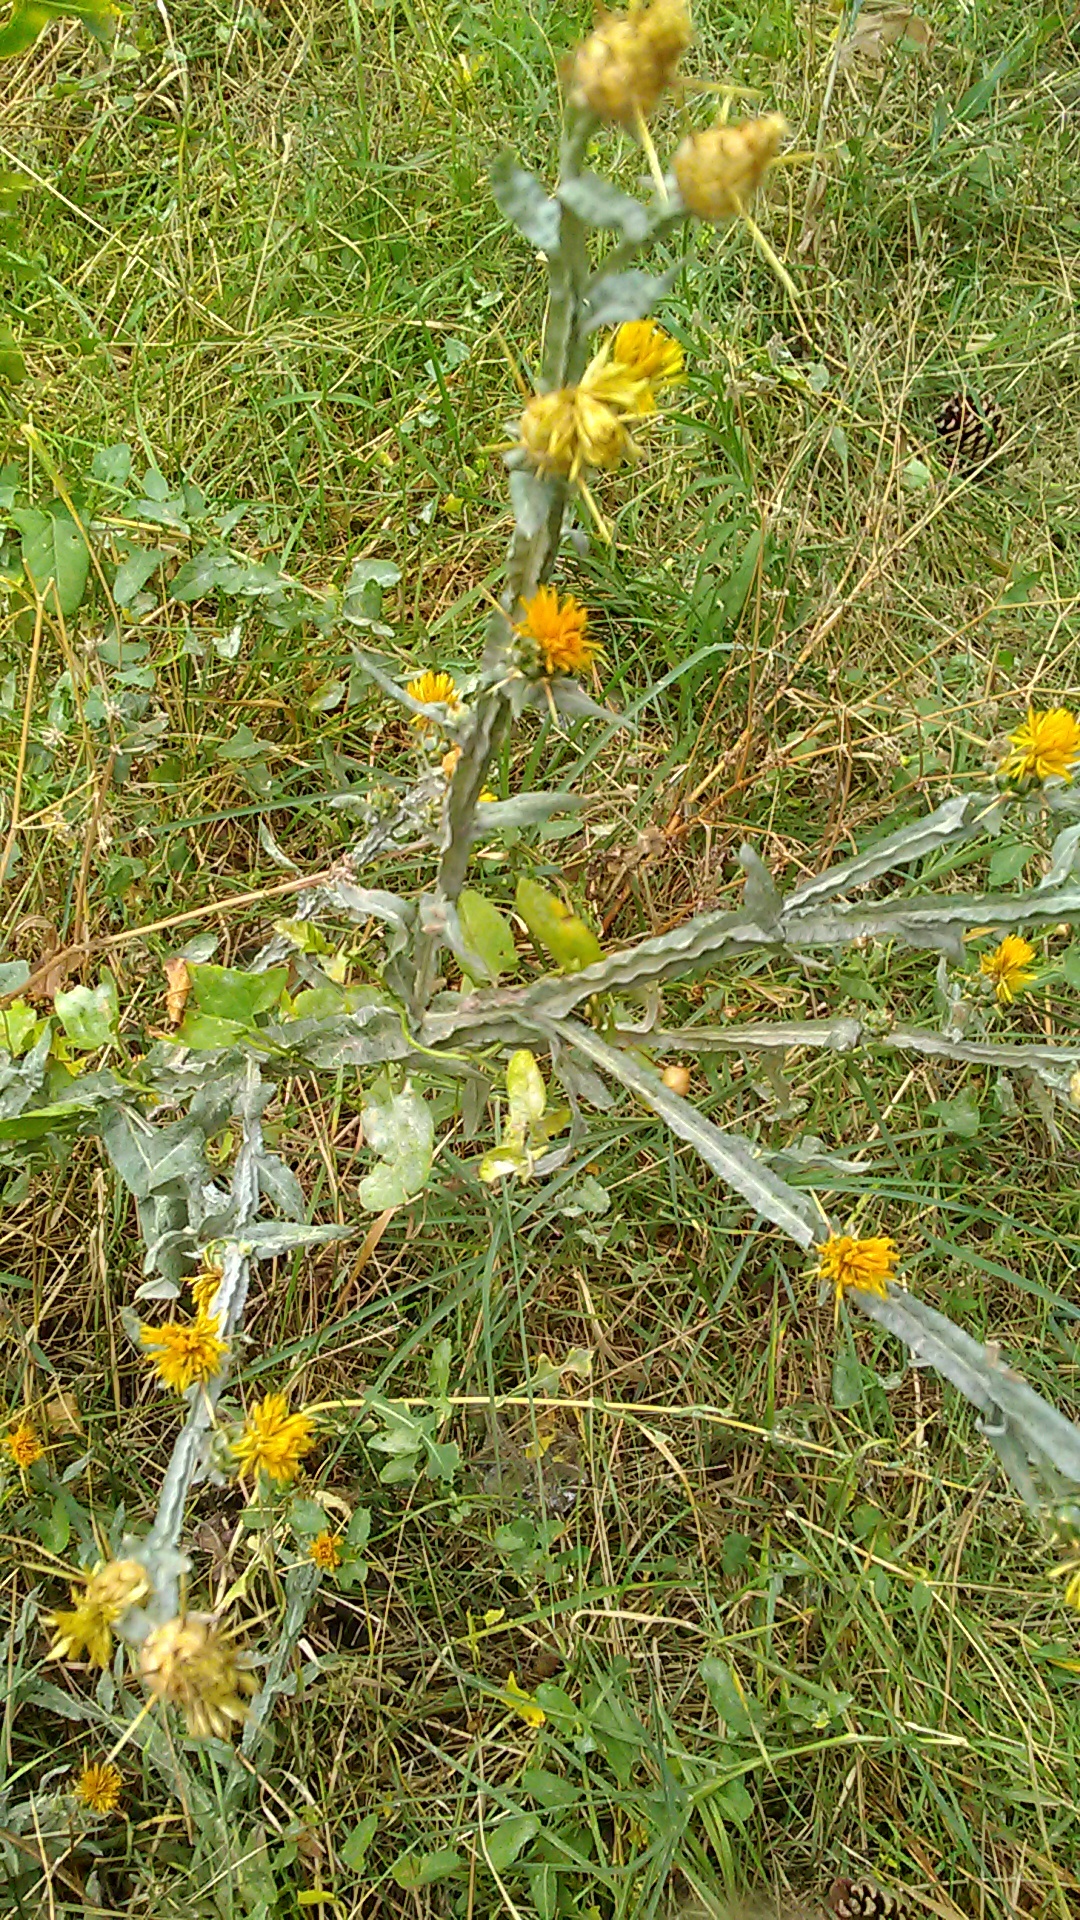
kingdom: Plantae
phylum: Tracheophyta
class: Magnoliopsida
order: Asterales
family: Asteraceae
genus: Centaurea
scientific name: Centaurea solstitialis
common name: Yellow star-thistle
